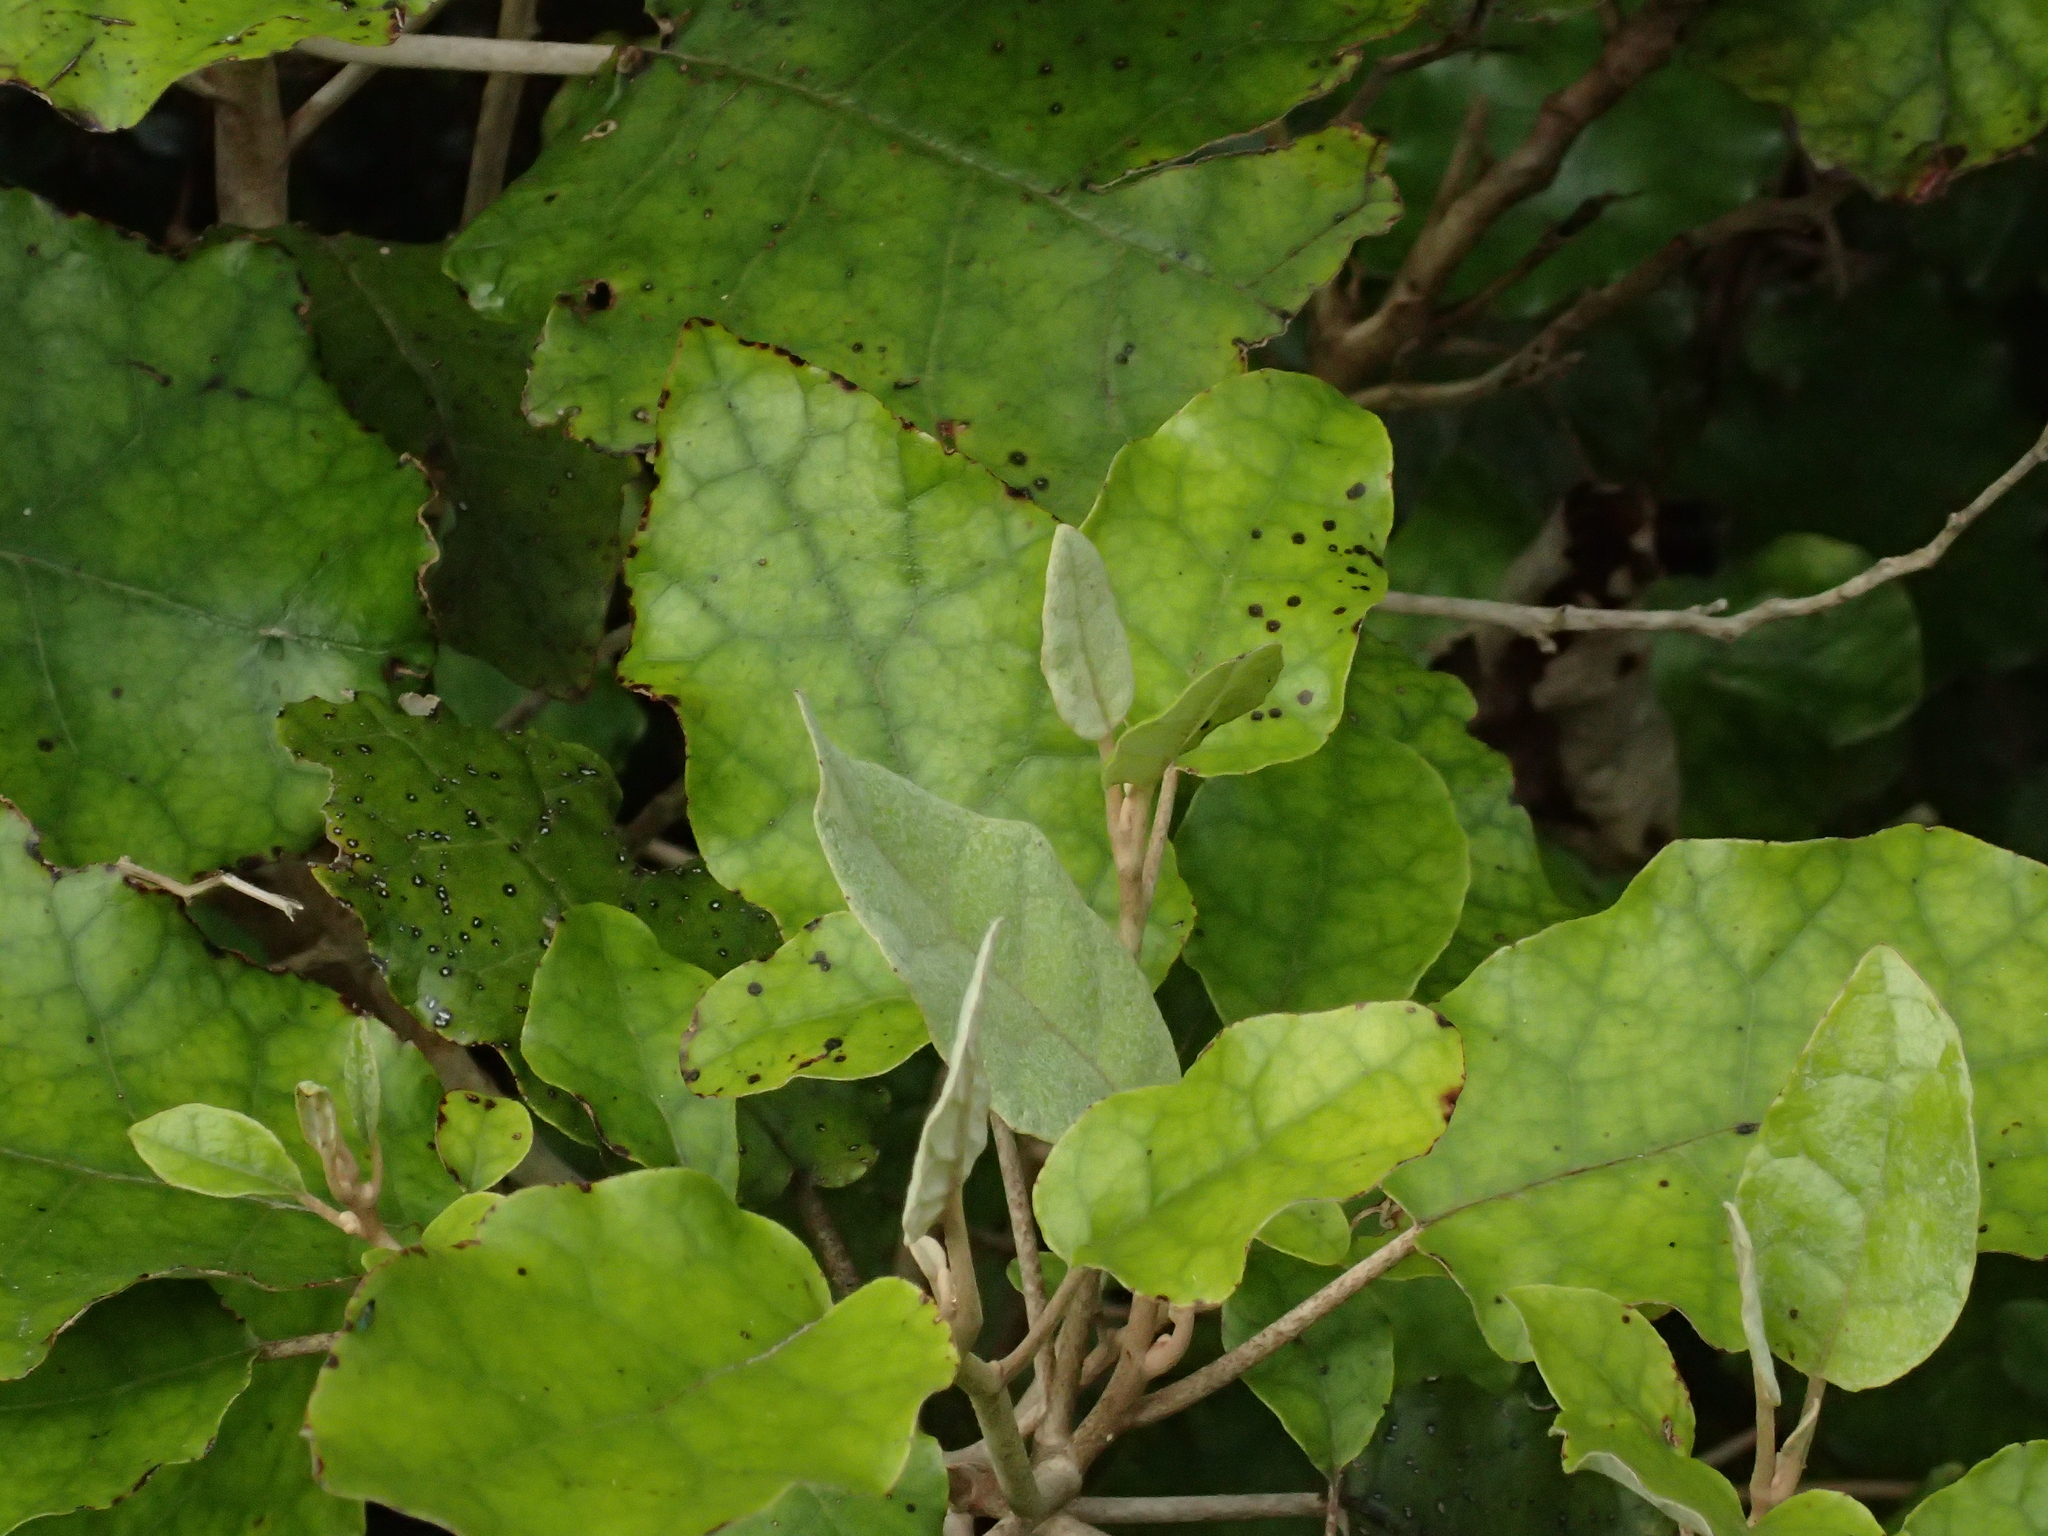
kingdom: Plantae
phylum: Tracheophyta
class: Magnoliopsida
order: Asterales
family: Asteraceae
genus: Brachyglottis
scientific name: Brachyglottis repanda
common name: Hedge ragwort
